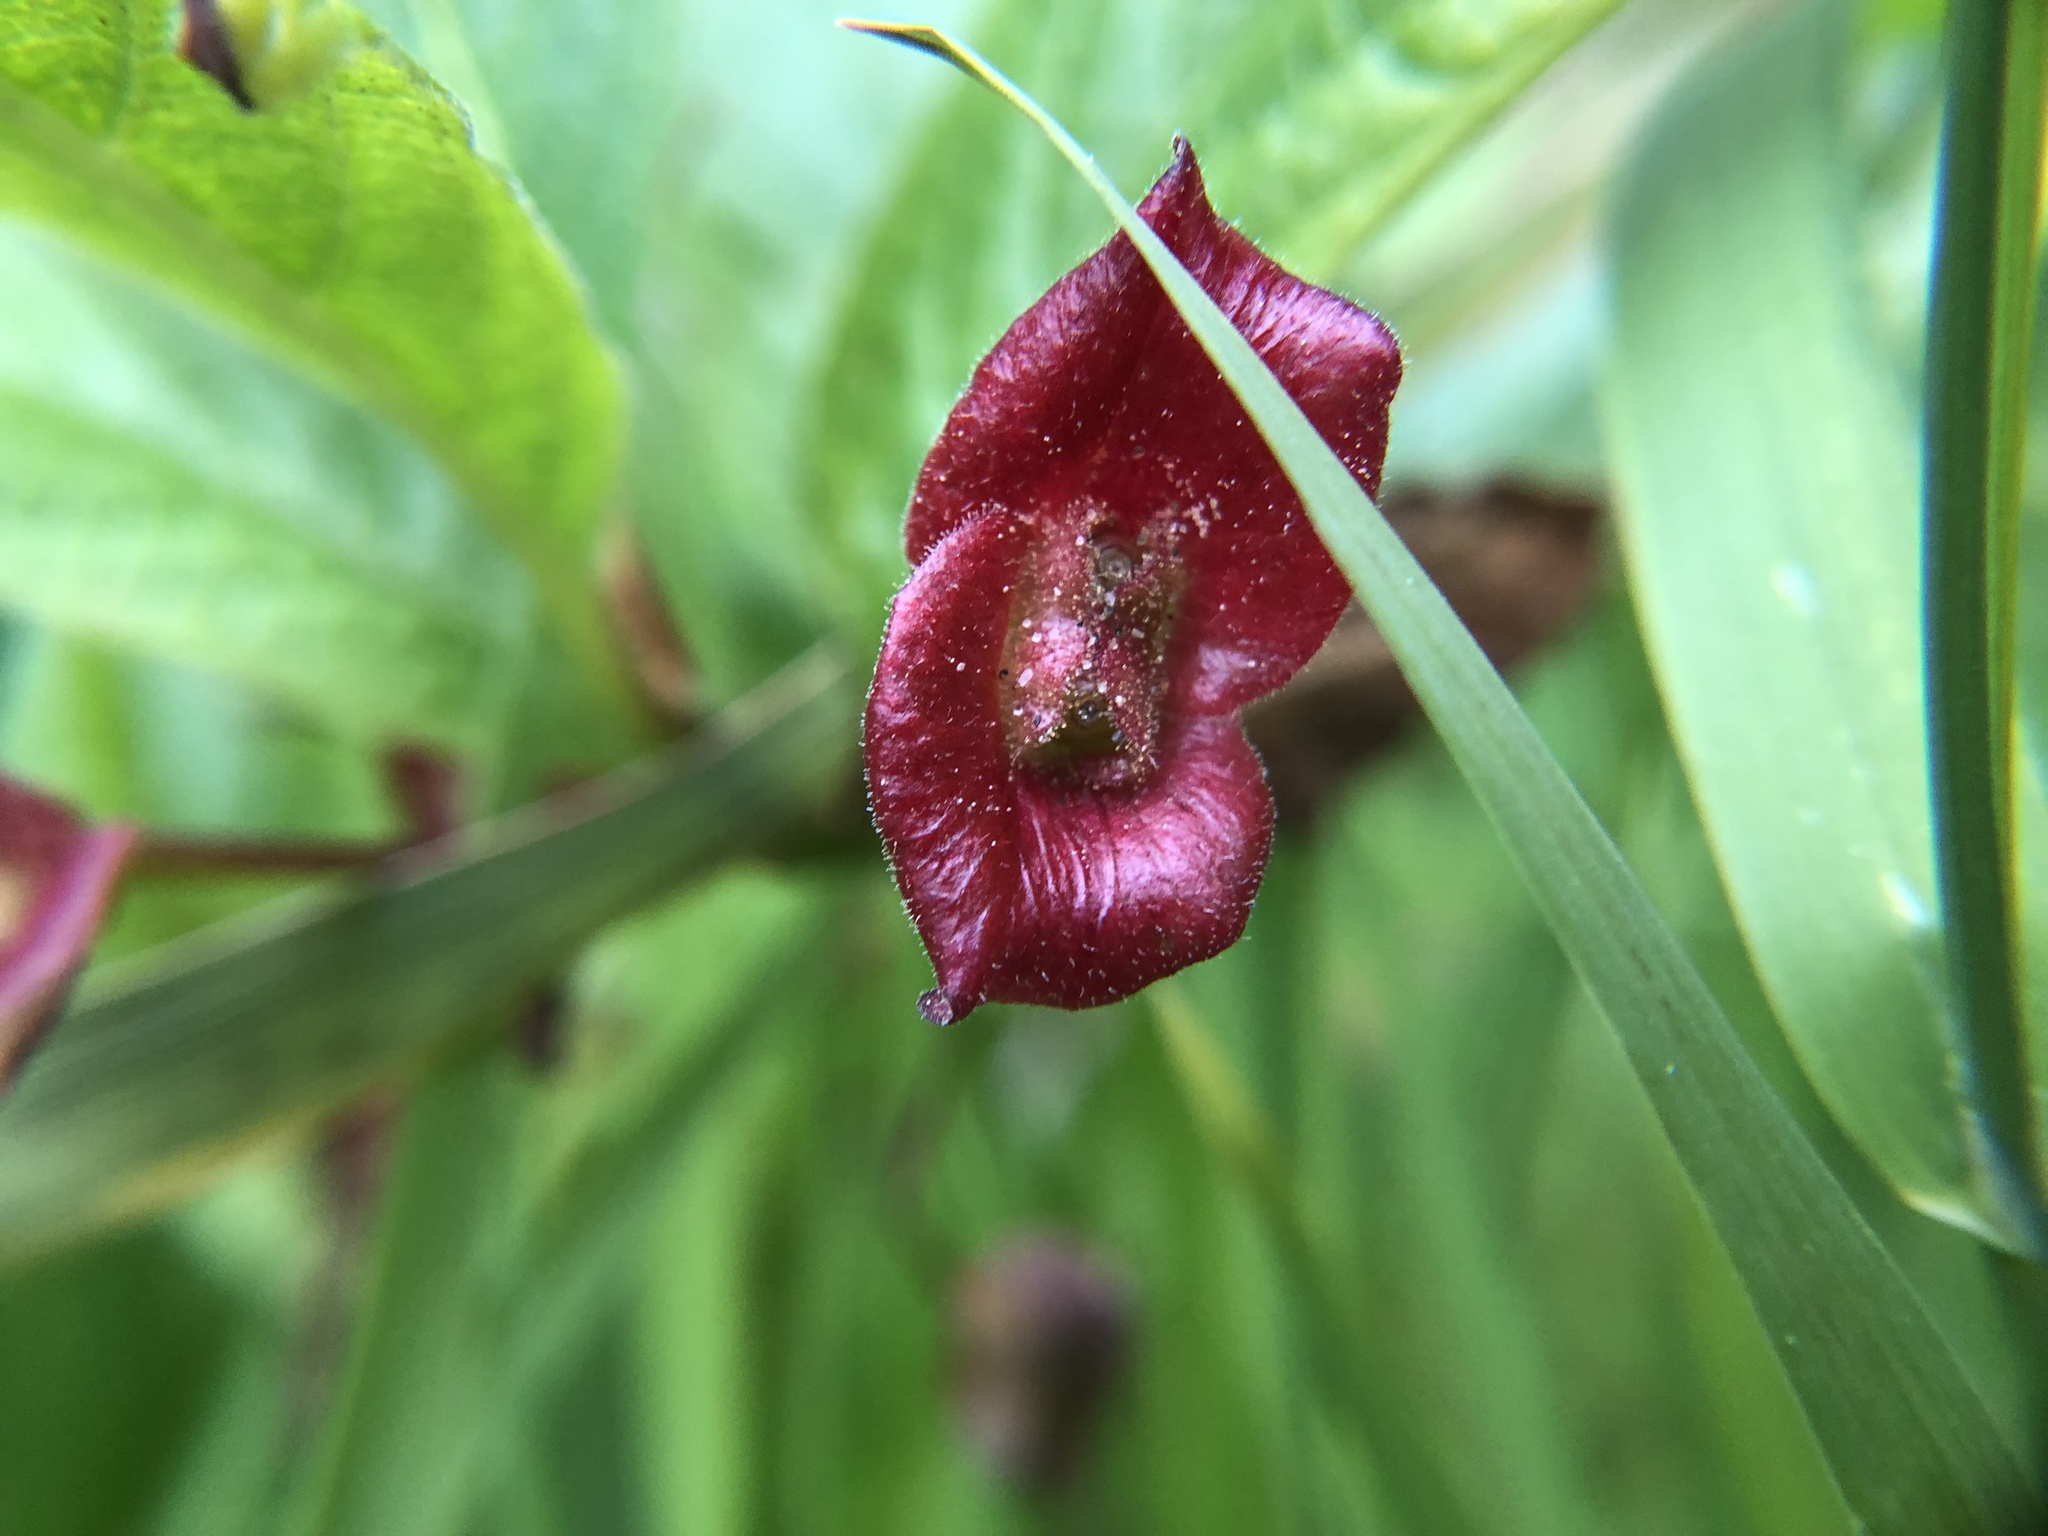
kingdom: Plantae
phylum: Tracheophyta
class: Magnoliopsida
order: Dipsacales
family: Caprifoliaceae
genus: Lonicera
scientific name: Lonicera involucrata
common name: Californian honeysuckle
